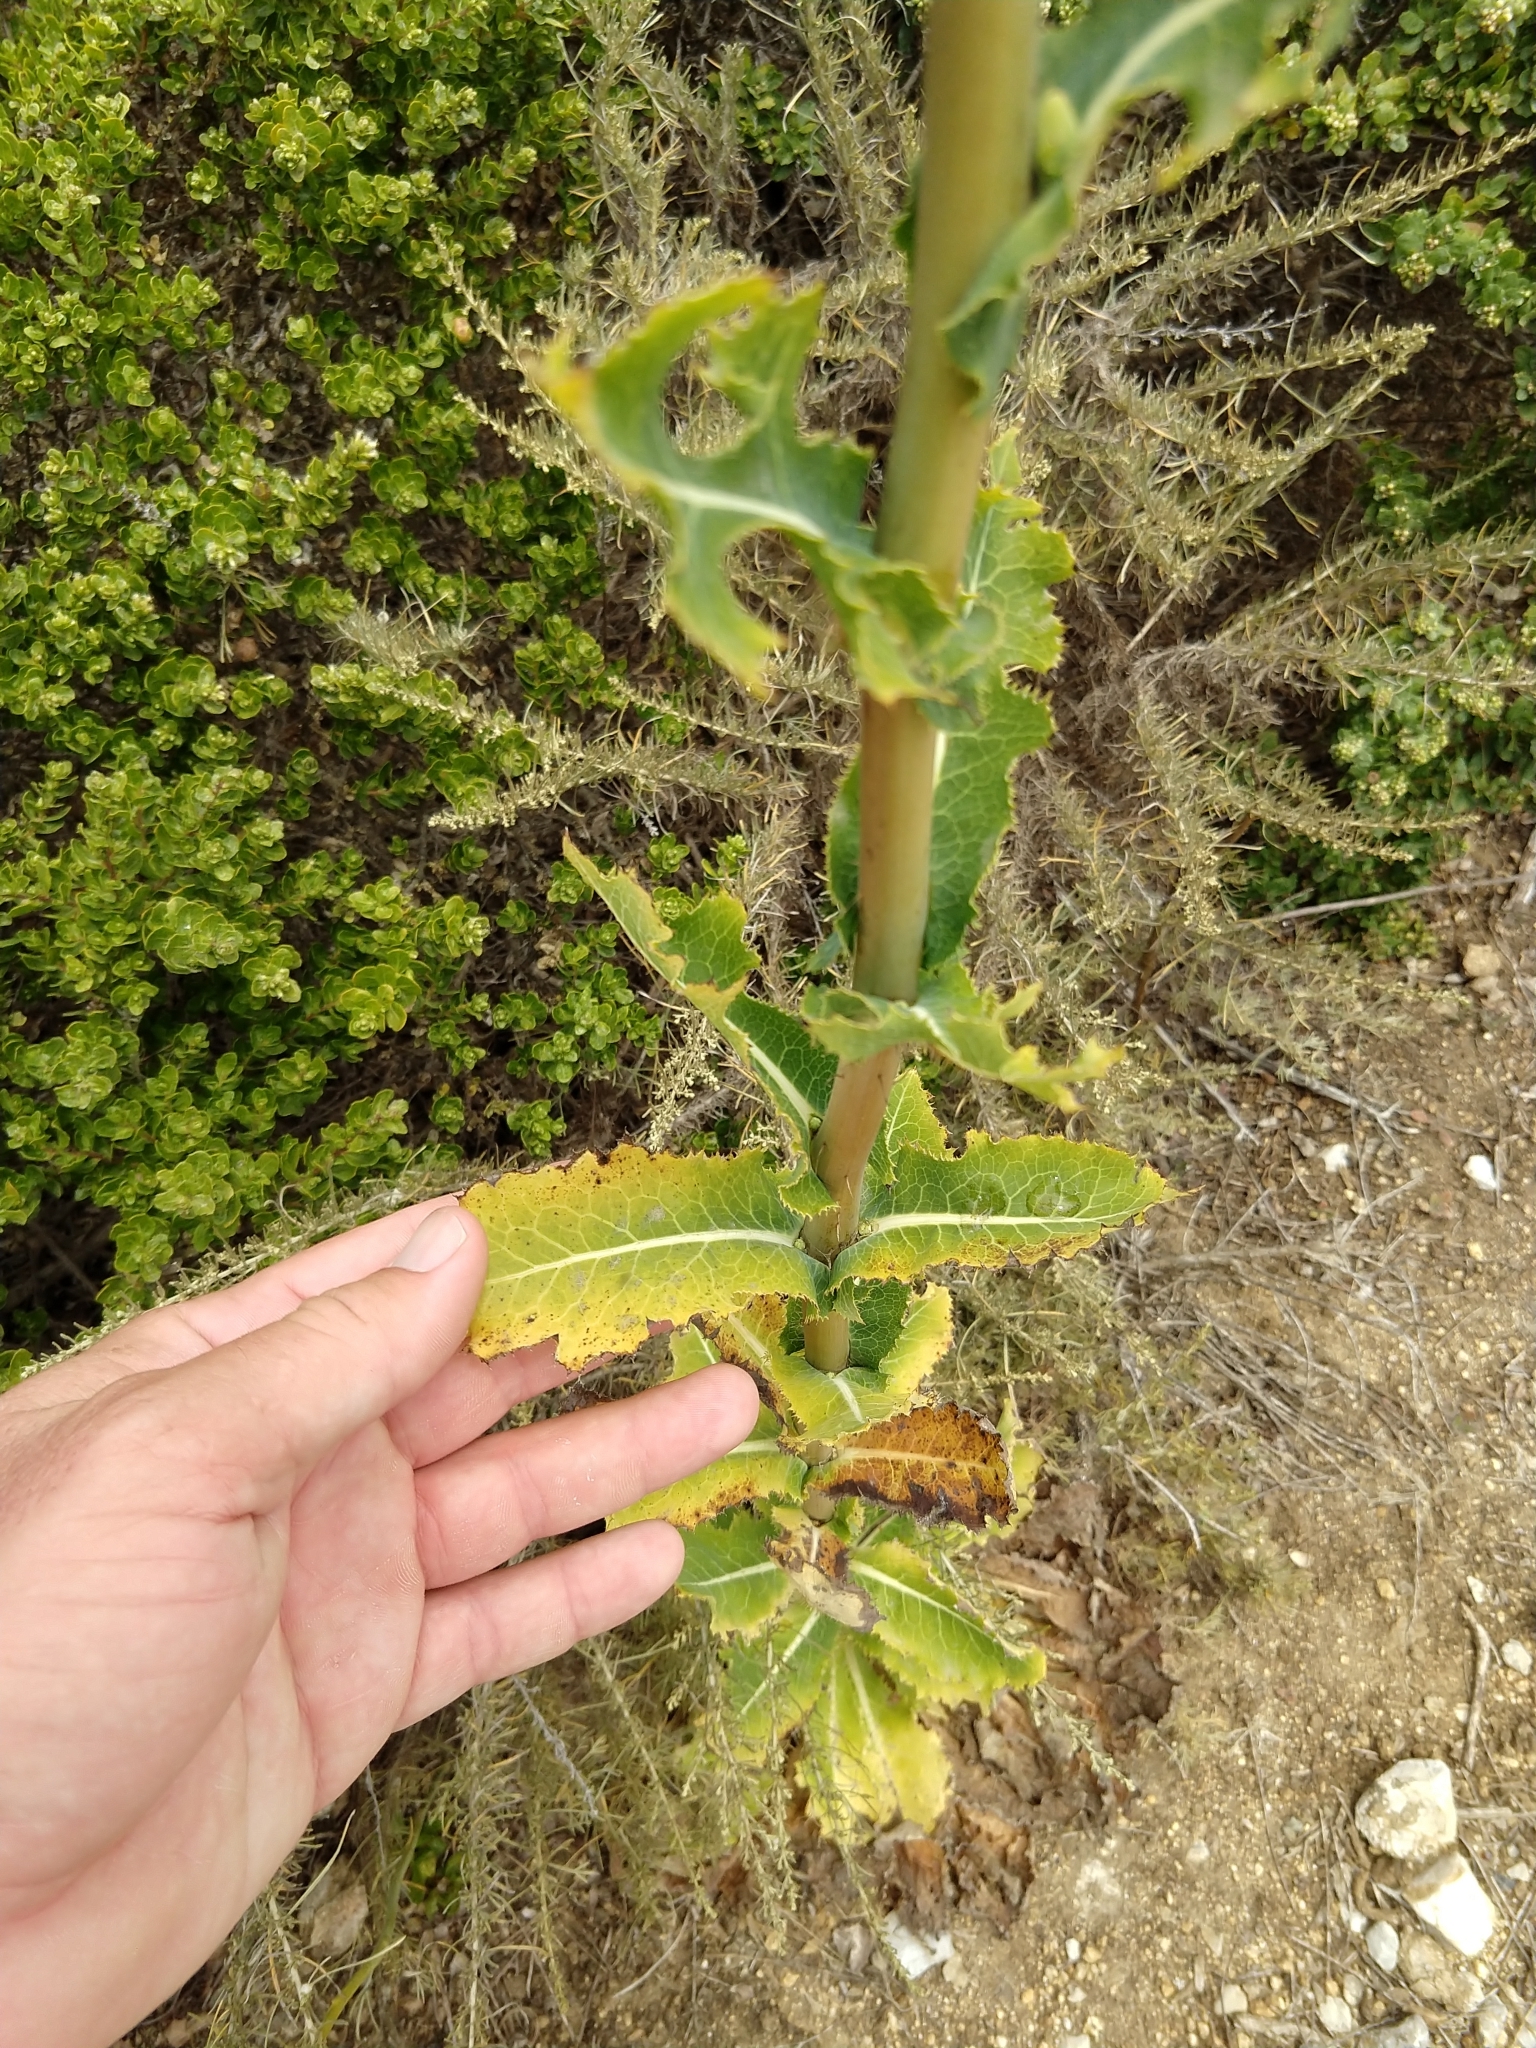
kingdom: Plantae
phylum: Tracheophyta
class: Magnoliopsida
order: Asterales
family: Asteraceae
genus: Lactuca
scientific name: Lactuca virosa
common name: Great lettuce
